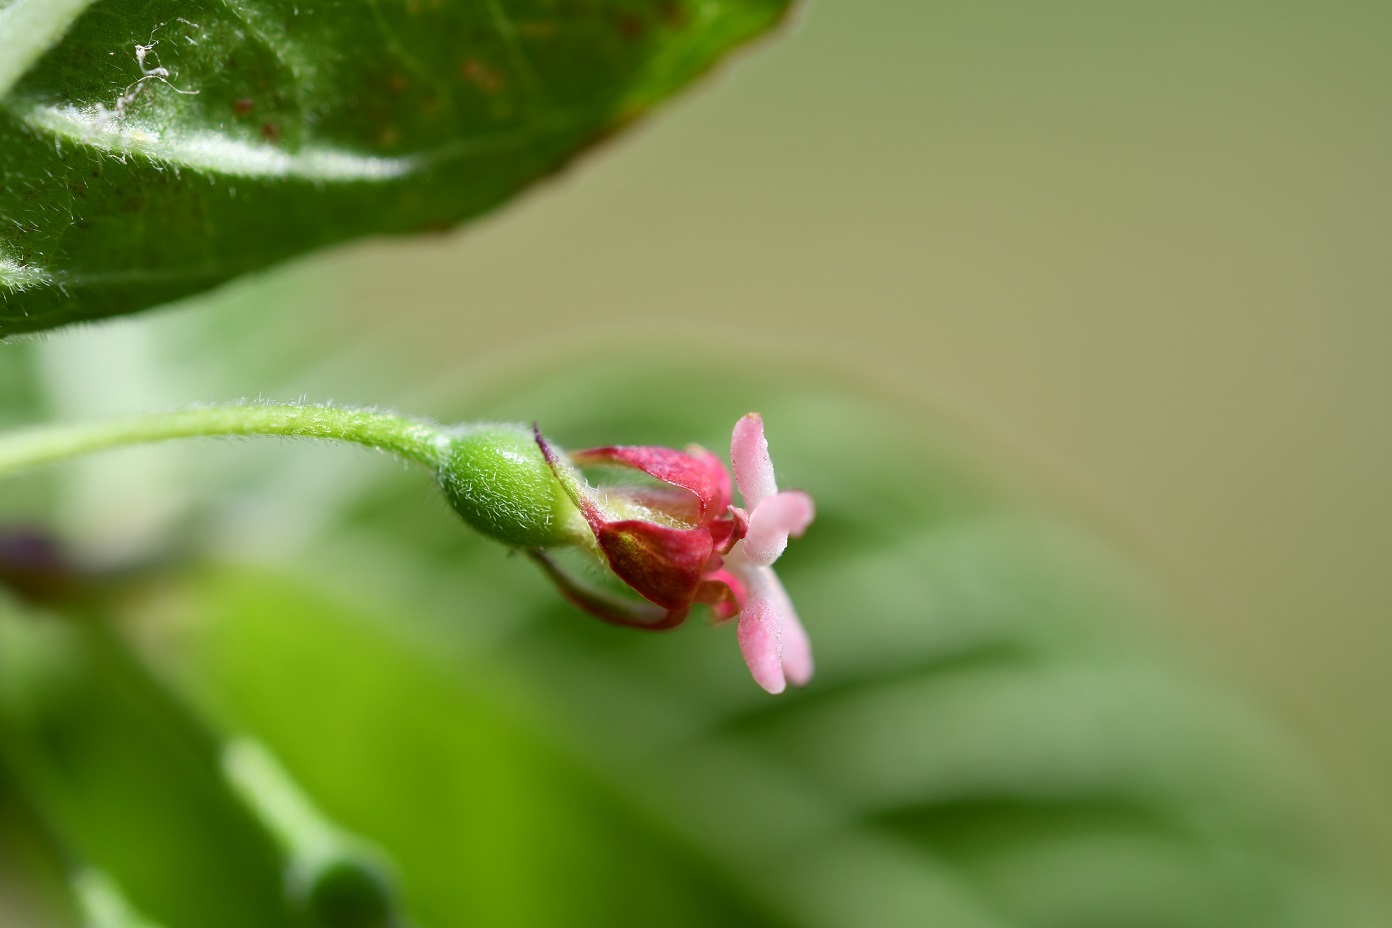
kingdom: Plantae
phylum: Tracheophyta
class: Magnoliopsida
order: Myrtales
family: Onagraceae
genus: Fuchsia
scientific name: Fuchsia encliandra
